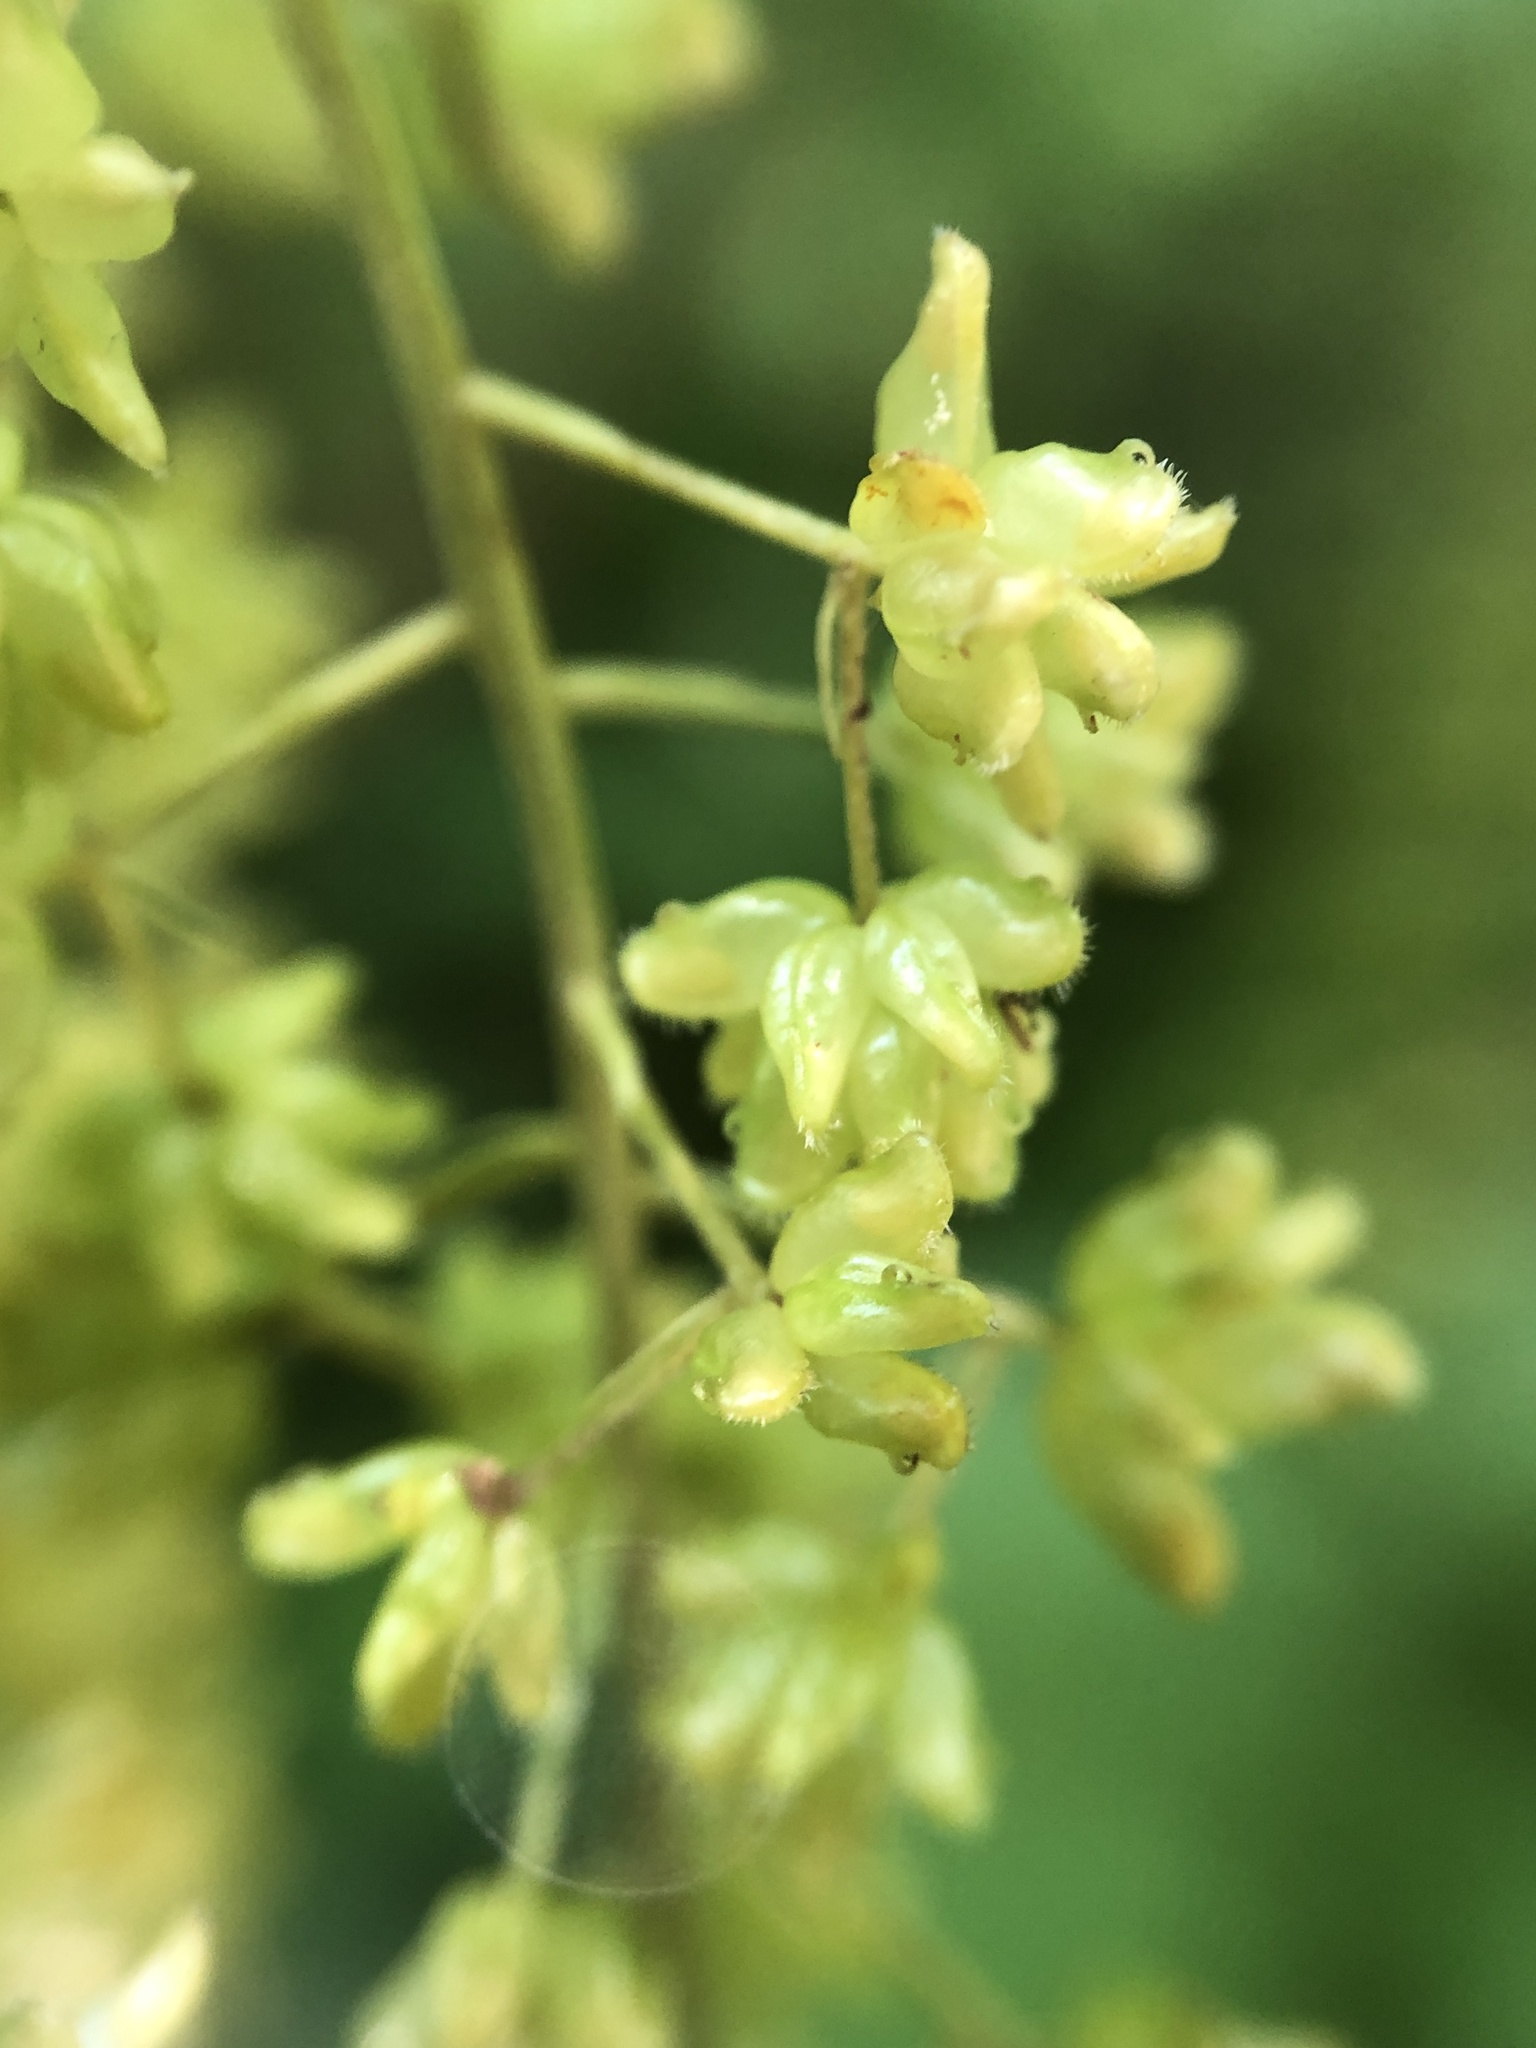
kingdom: Plantae
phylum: Tracheophyta
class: Magnoliopsida
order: Ranunculales
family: Ranunculaceae
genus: Xanthorhiza
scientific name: Xanthorhiza simplicissima
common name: Yellowroot
